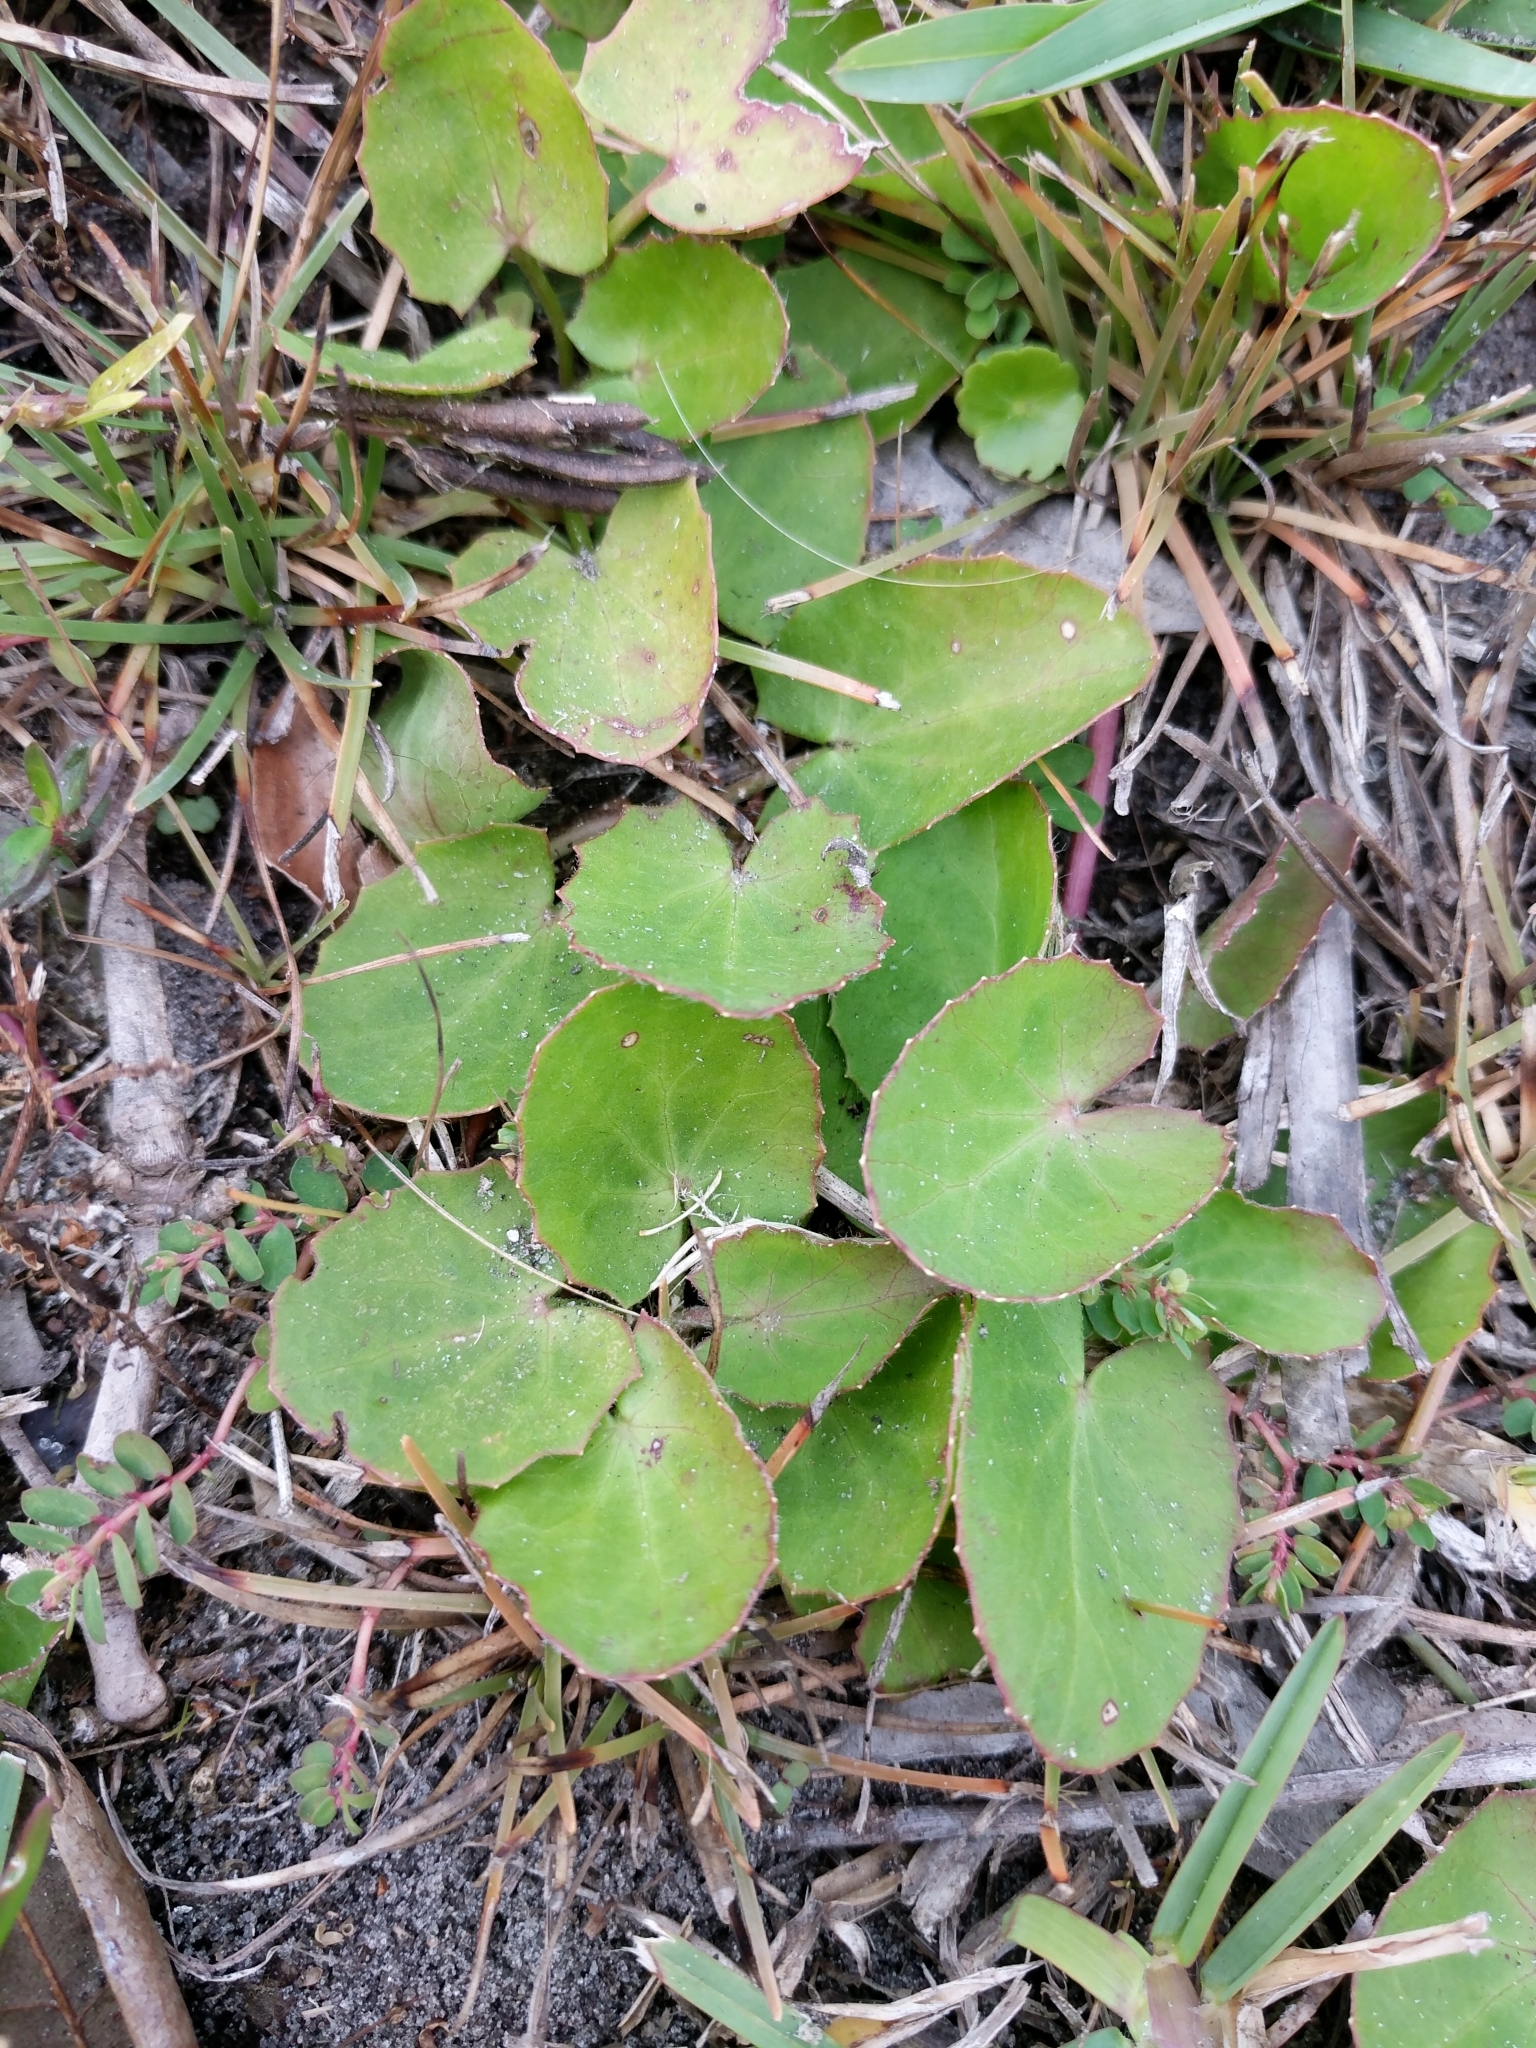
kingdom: Plantae
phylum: Tracheophyta
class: Magnoliopsida
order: Apiales
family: Apiaceae
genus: Centella
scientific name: Centella erecta
